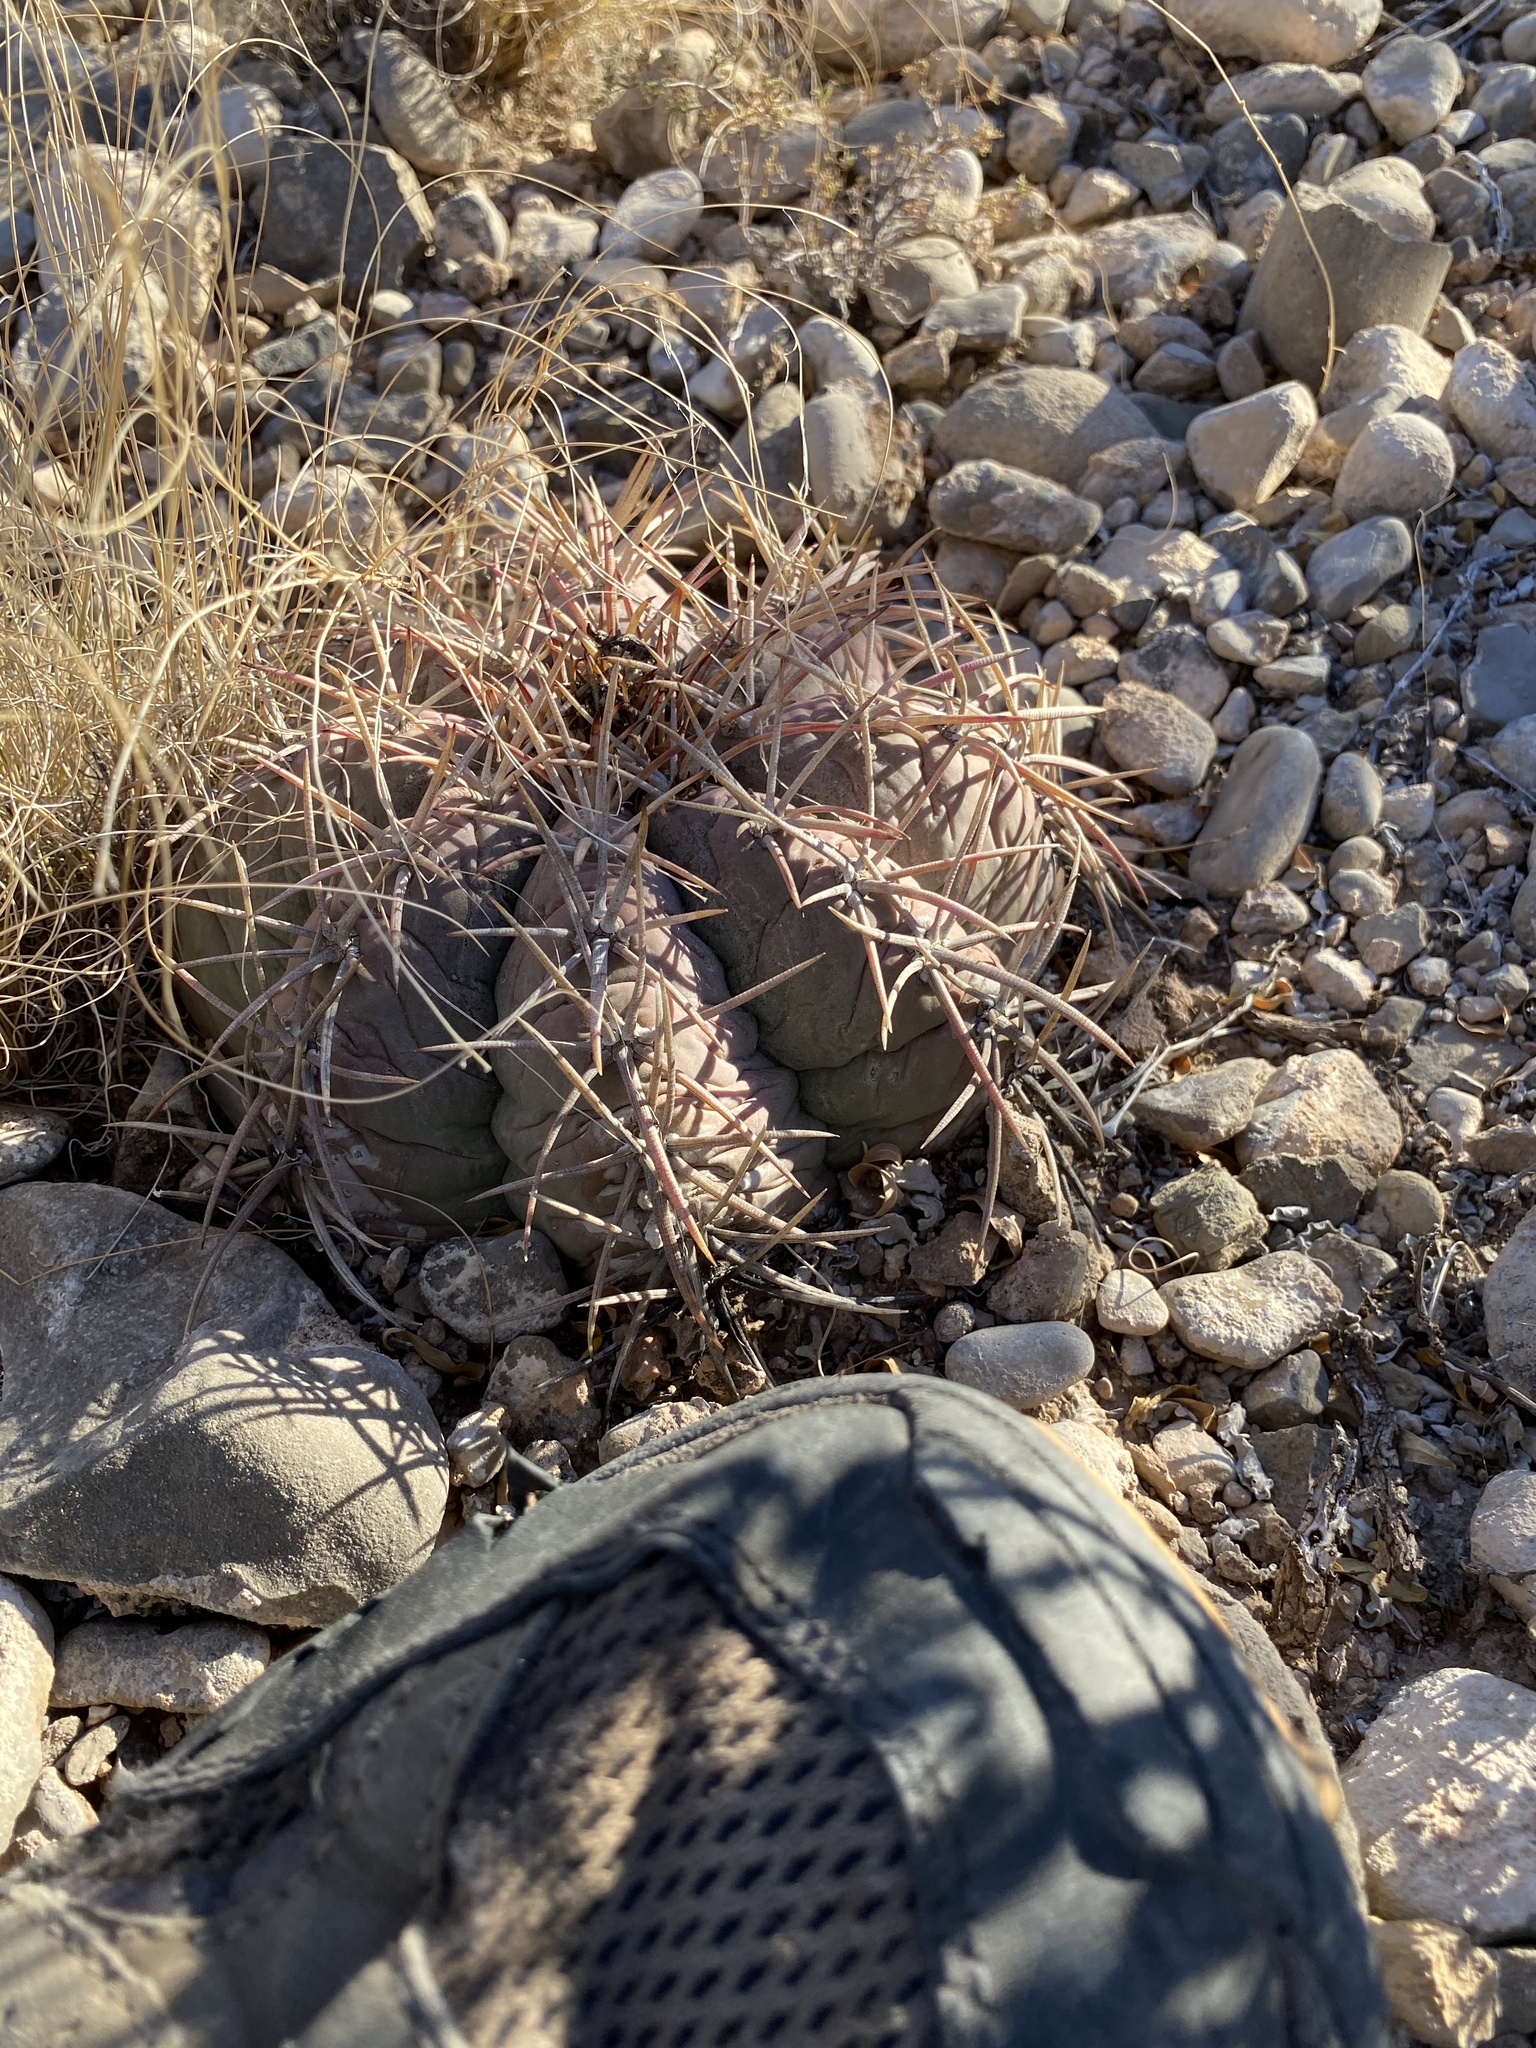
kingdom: Plantae
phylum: Tracheophyta
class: Magnoliopsida
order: Caryophyllales
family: Cactaceae
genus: Echinocactus
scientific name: Echinocactus horizonthalonius
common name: Devilshead
